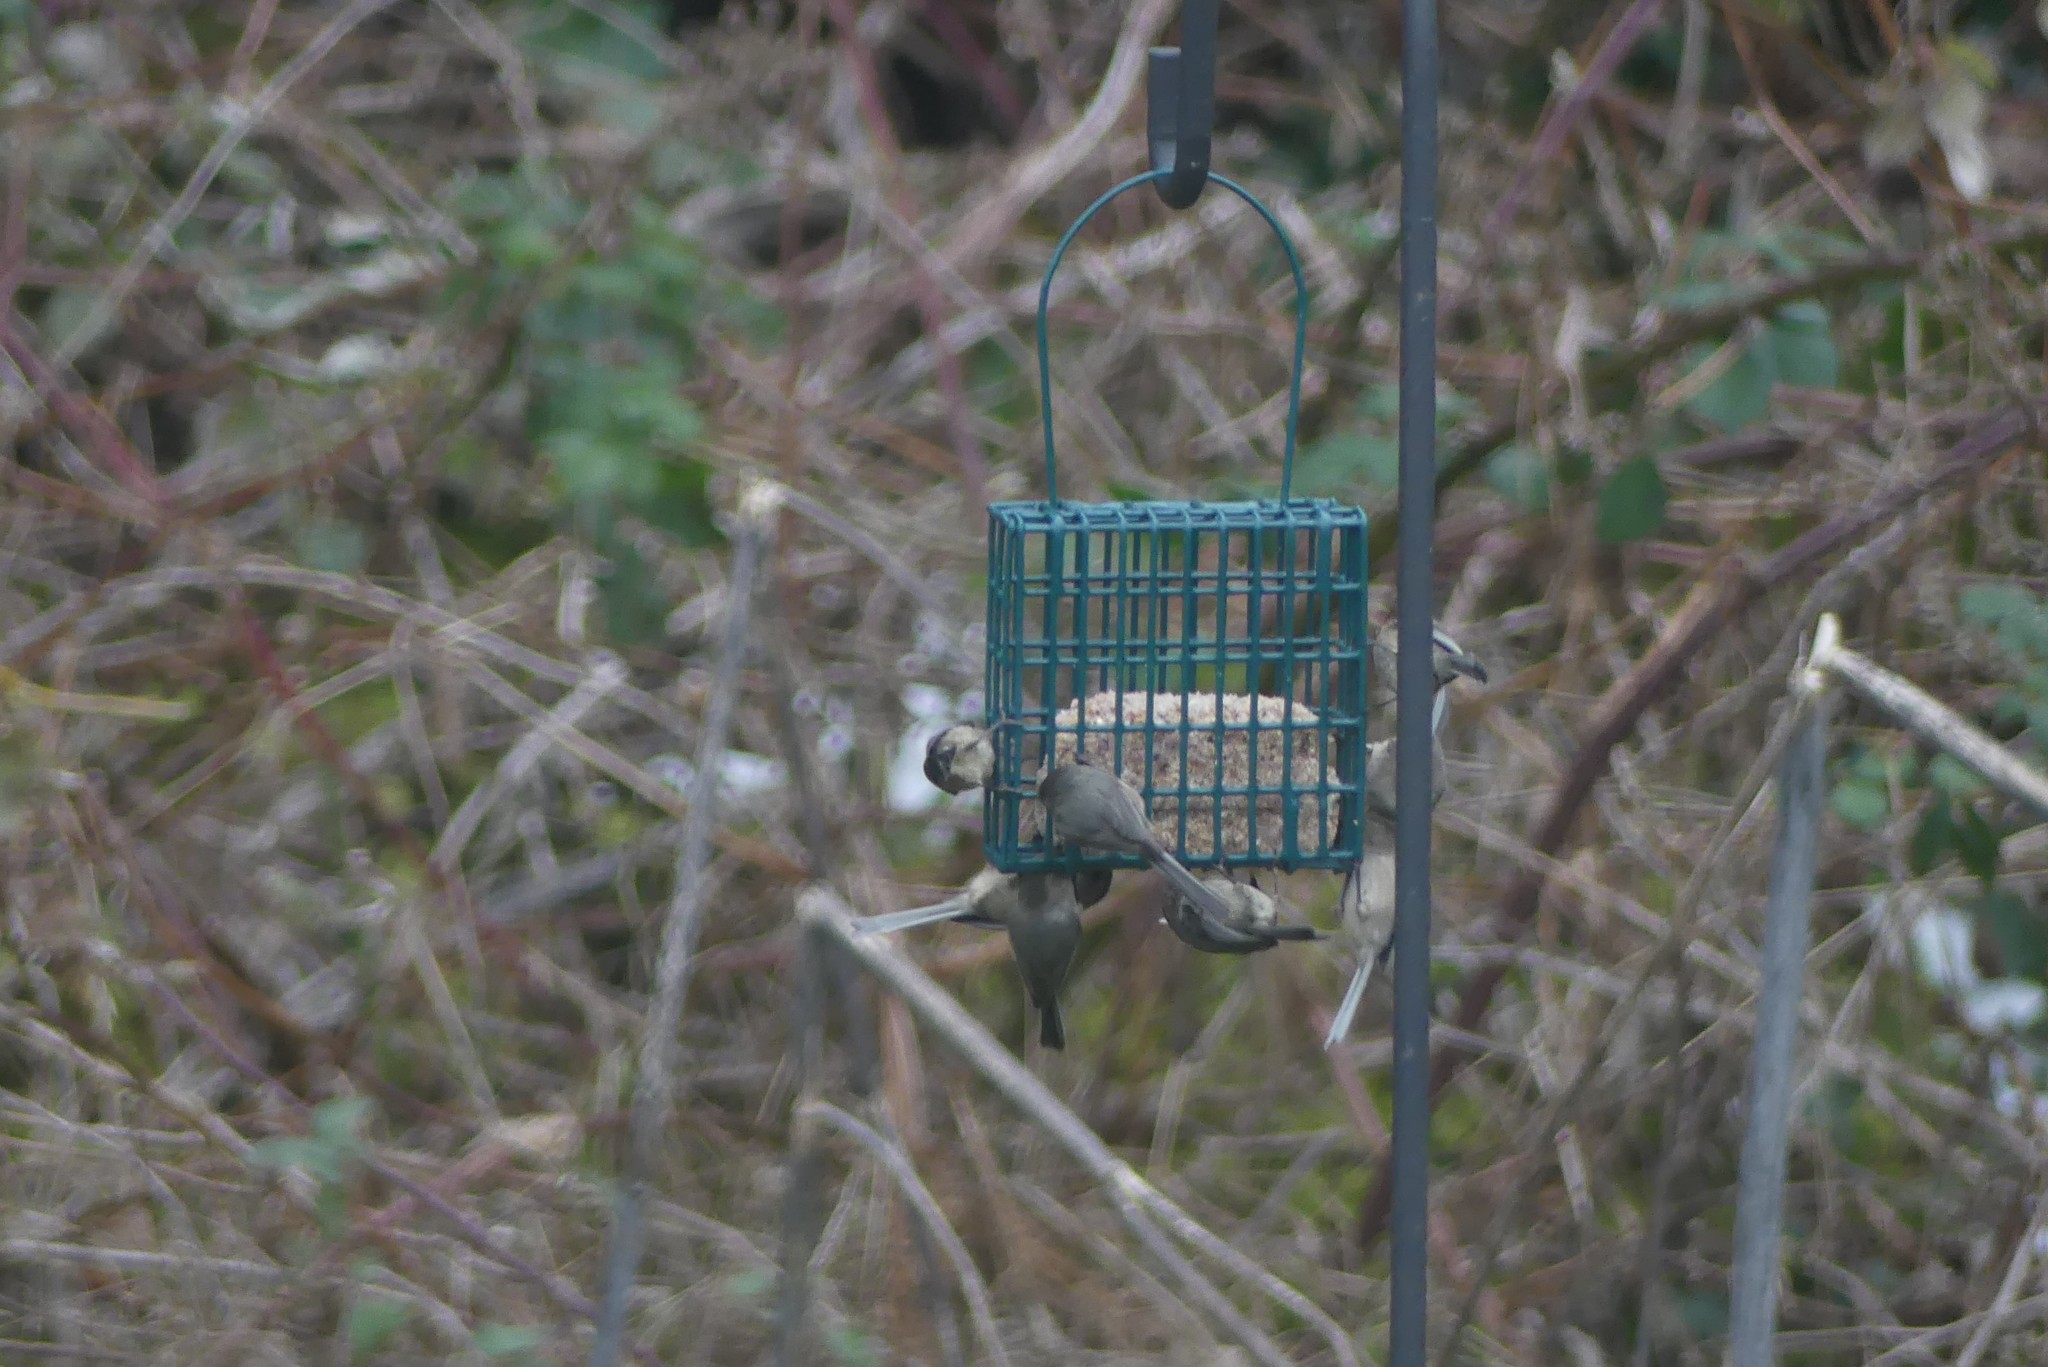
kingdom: Animalia
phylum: Chordata
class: Aves
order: Passeriformes
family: Aegithalidae
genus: Psaltriparus
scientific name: Psaltriparus minimus
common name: American bushtit
